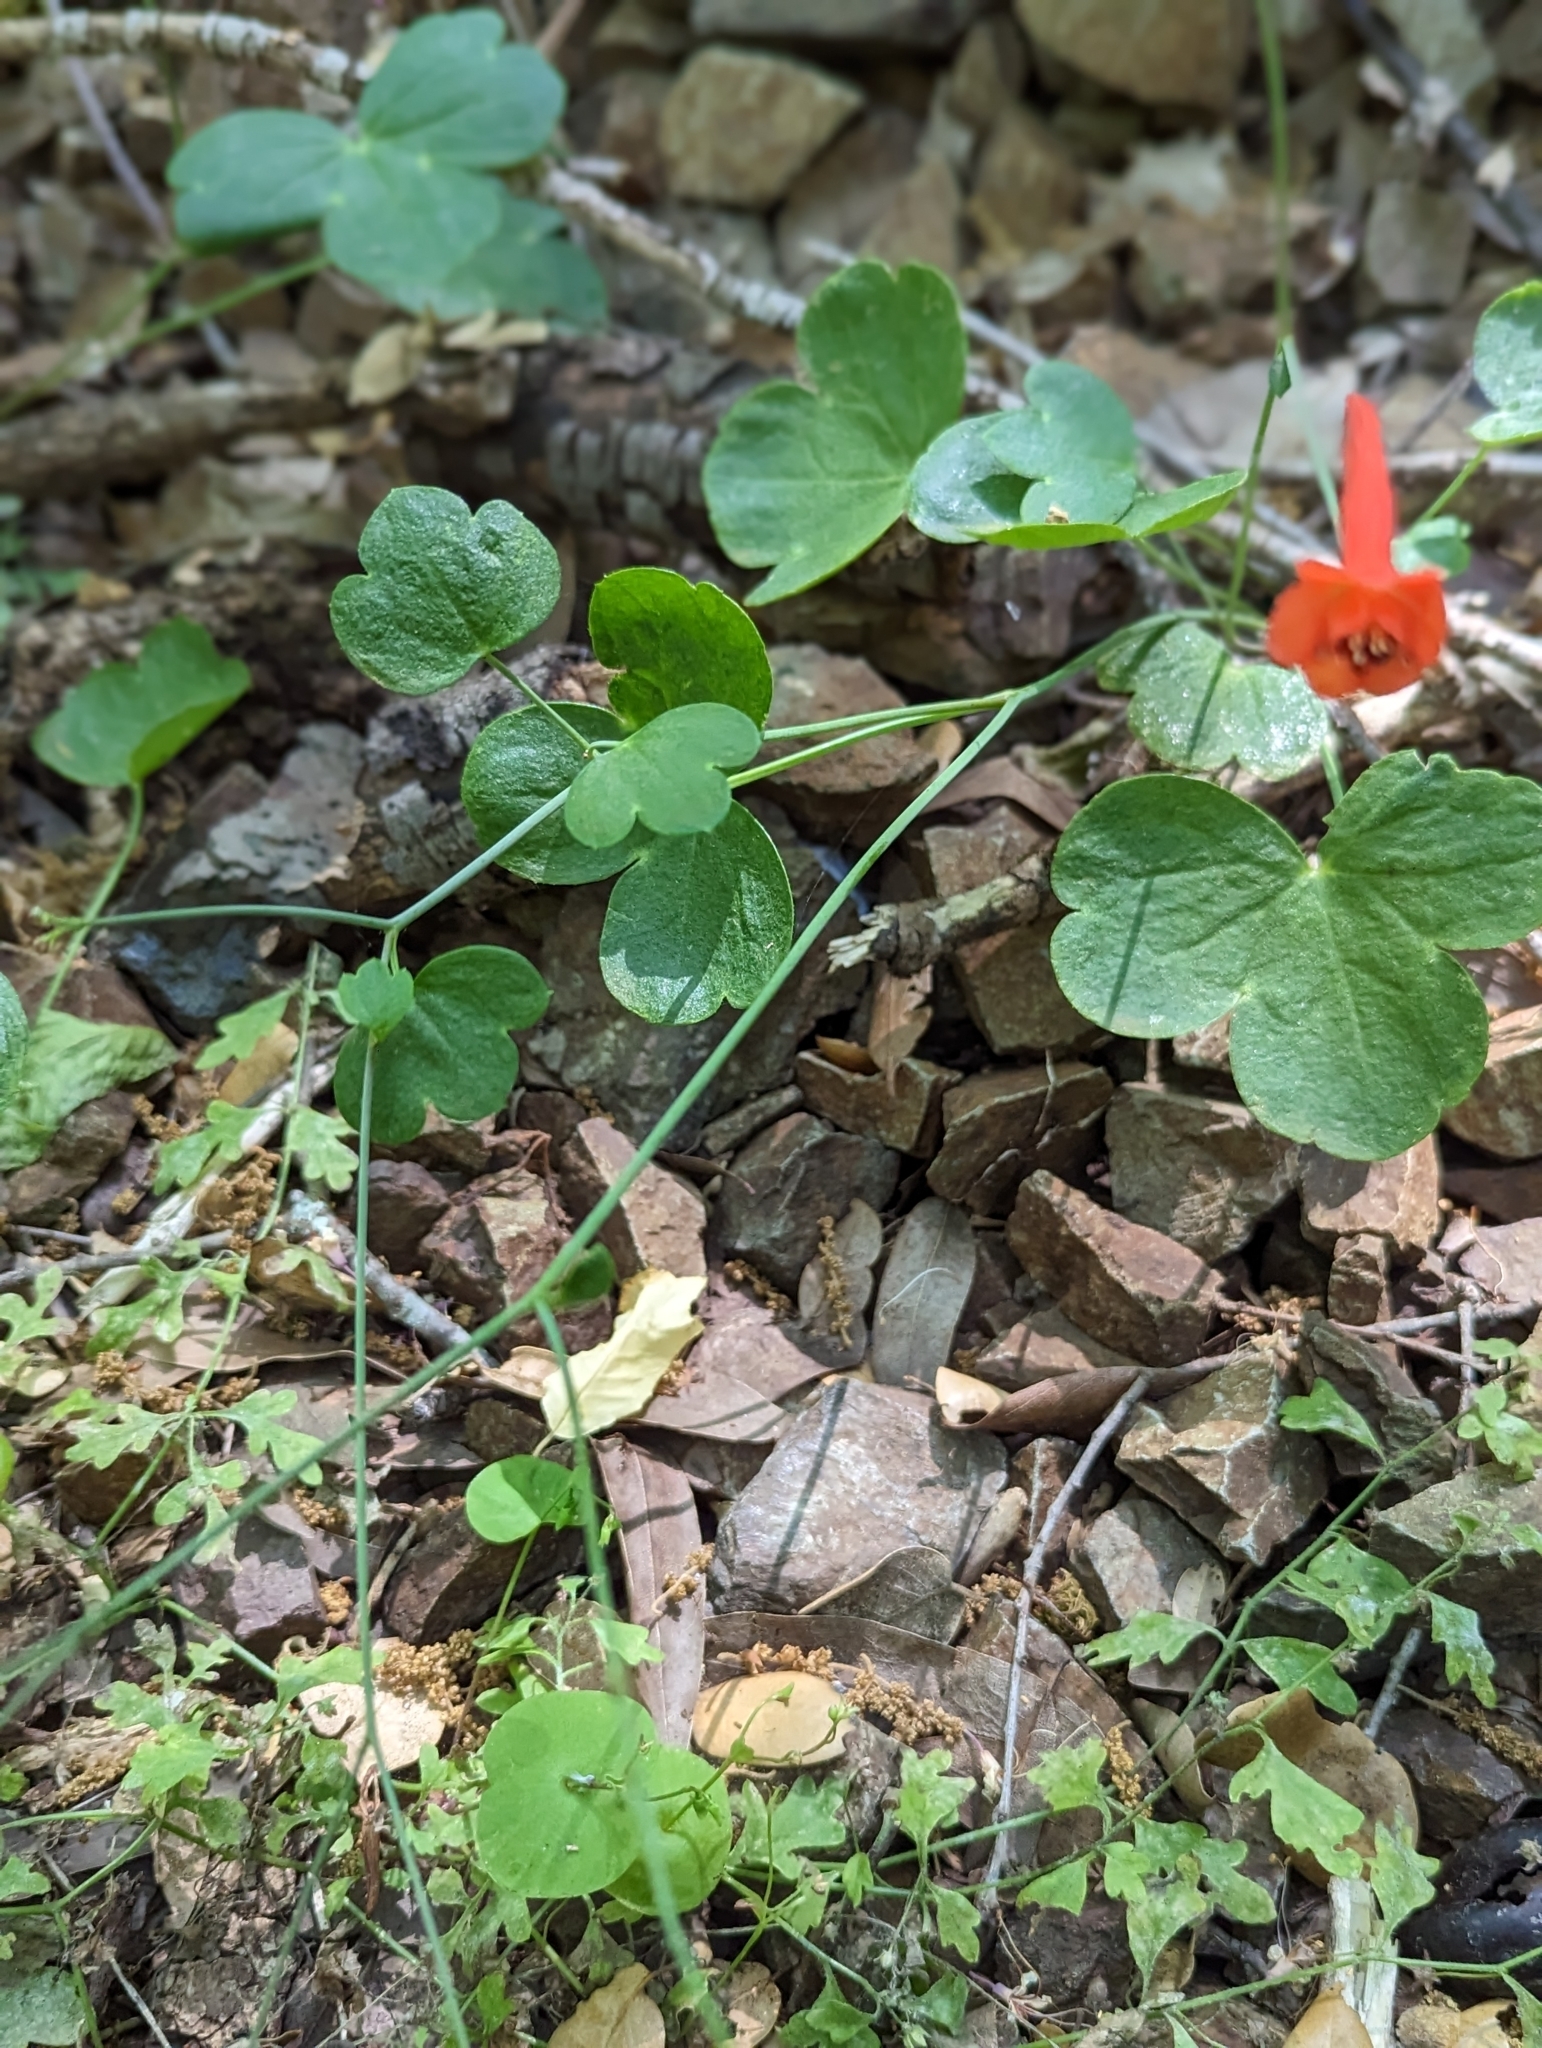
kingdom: Plantae
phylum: Tracheophyta
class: Magnoliopsida
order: Ranunculales
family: Ranunculaceae
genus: Delphinium
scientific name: Delphinium nudicaule
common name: Red larkspur
